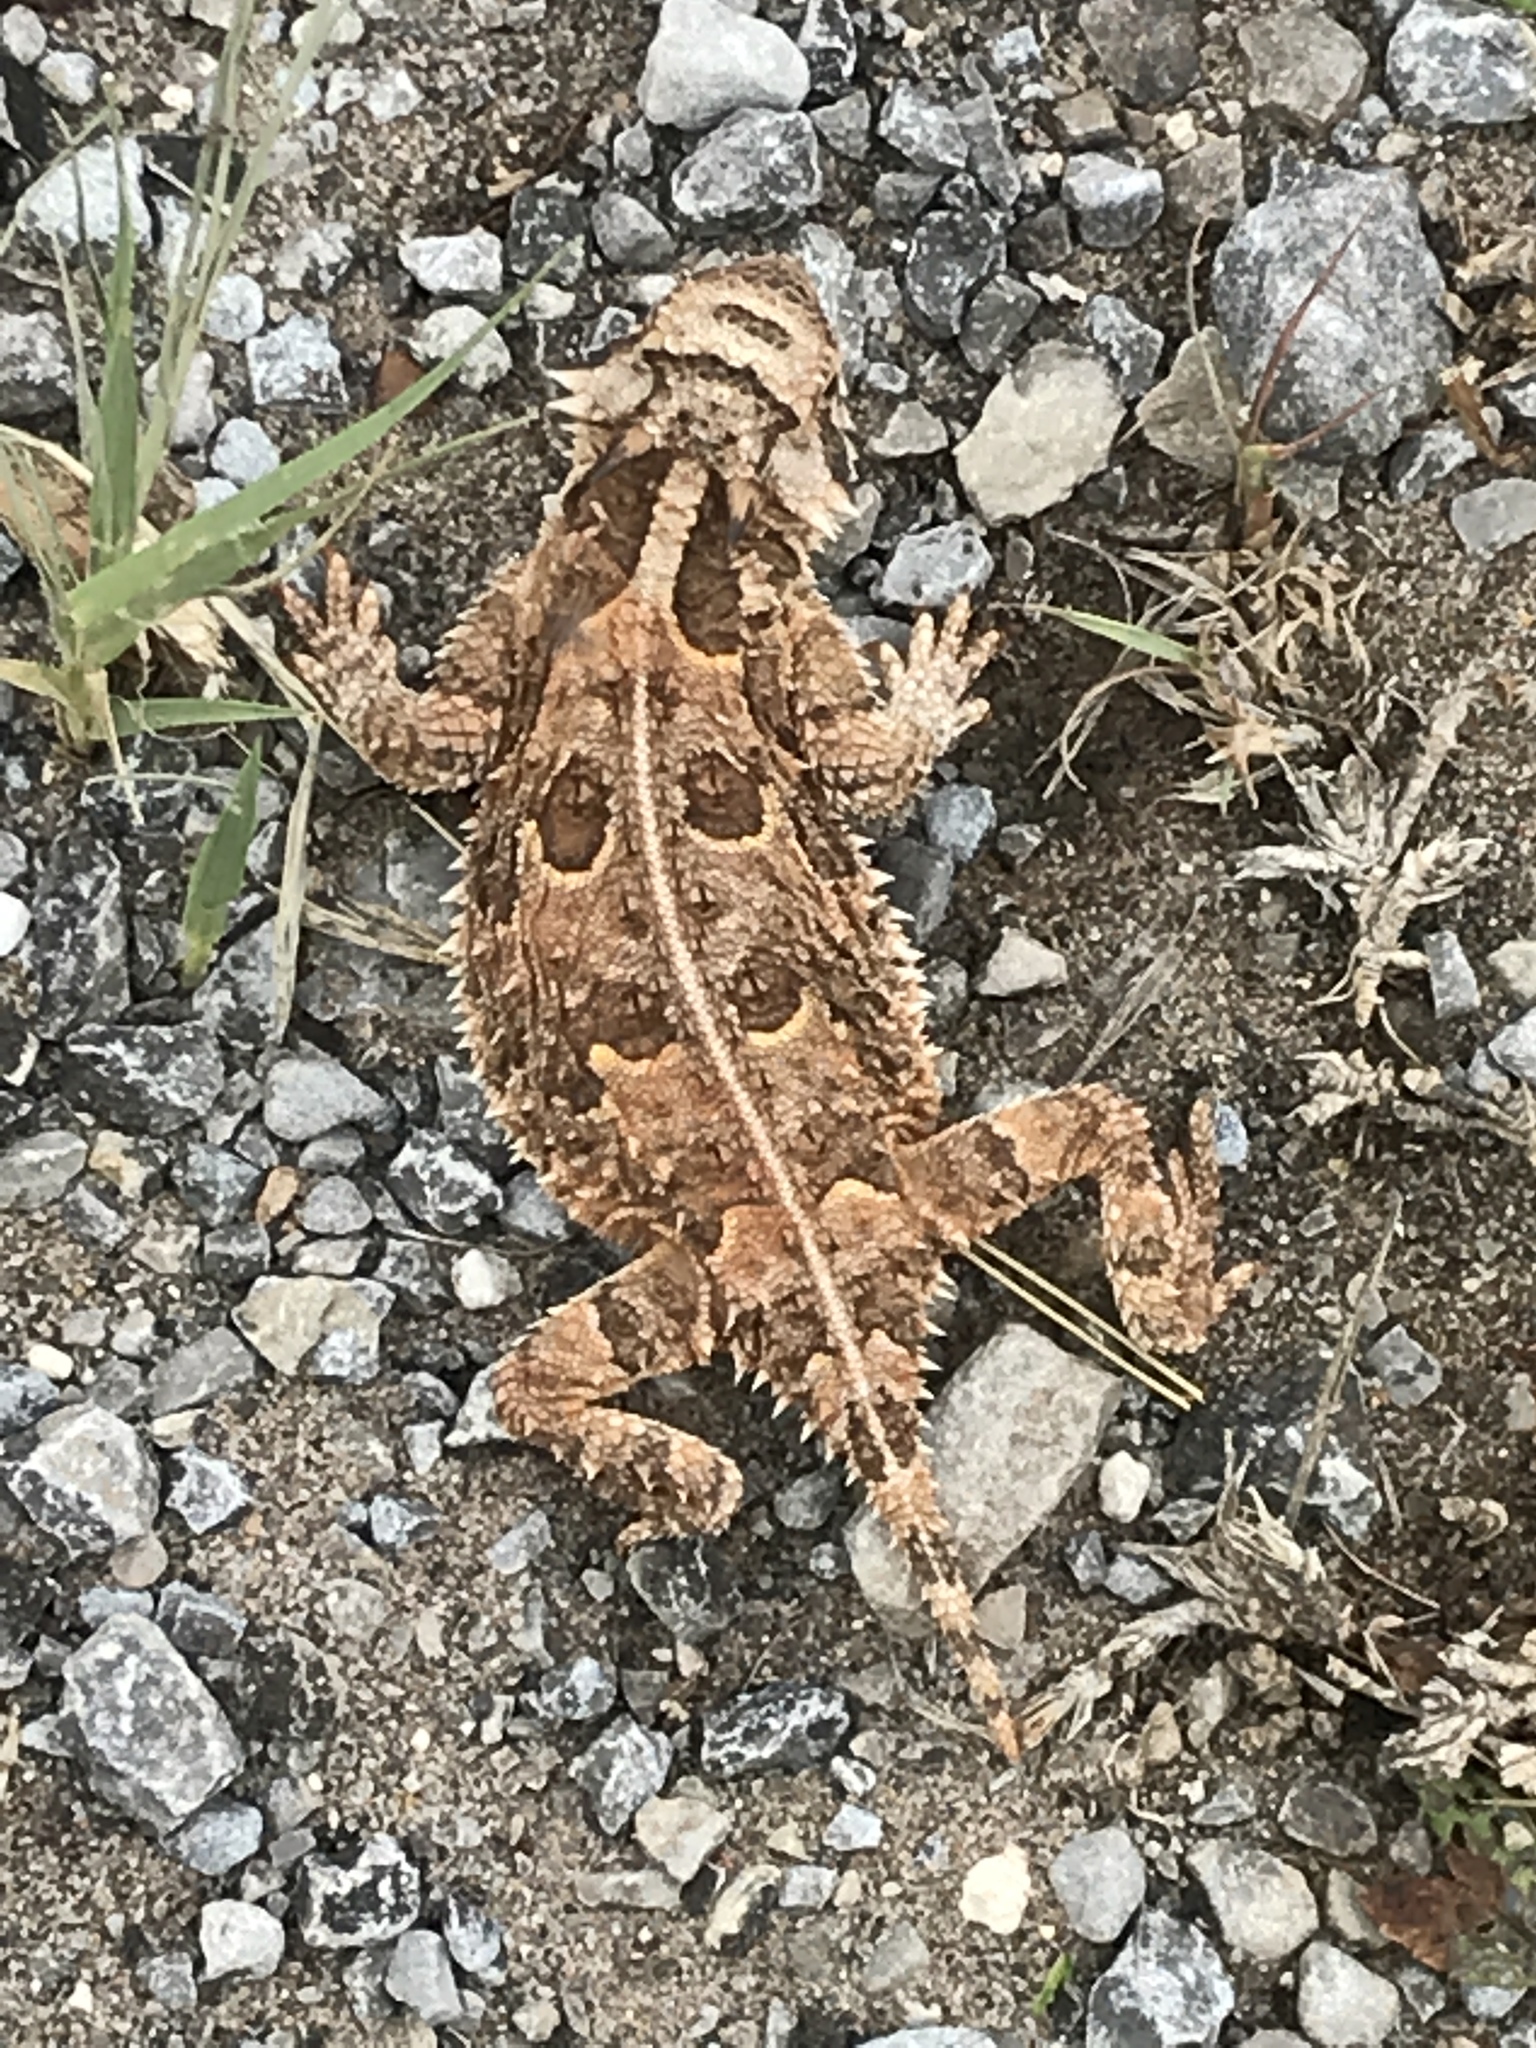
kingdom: Animalia
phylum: Chordata
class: Squamata
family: Phrynosomatidae
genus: Phrynosoma
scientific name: Phrynosoma cornutum
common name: Texas horned lizard
